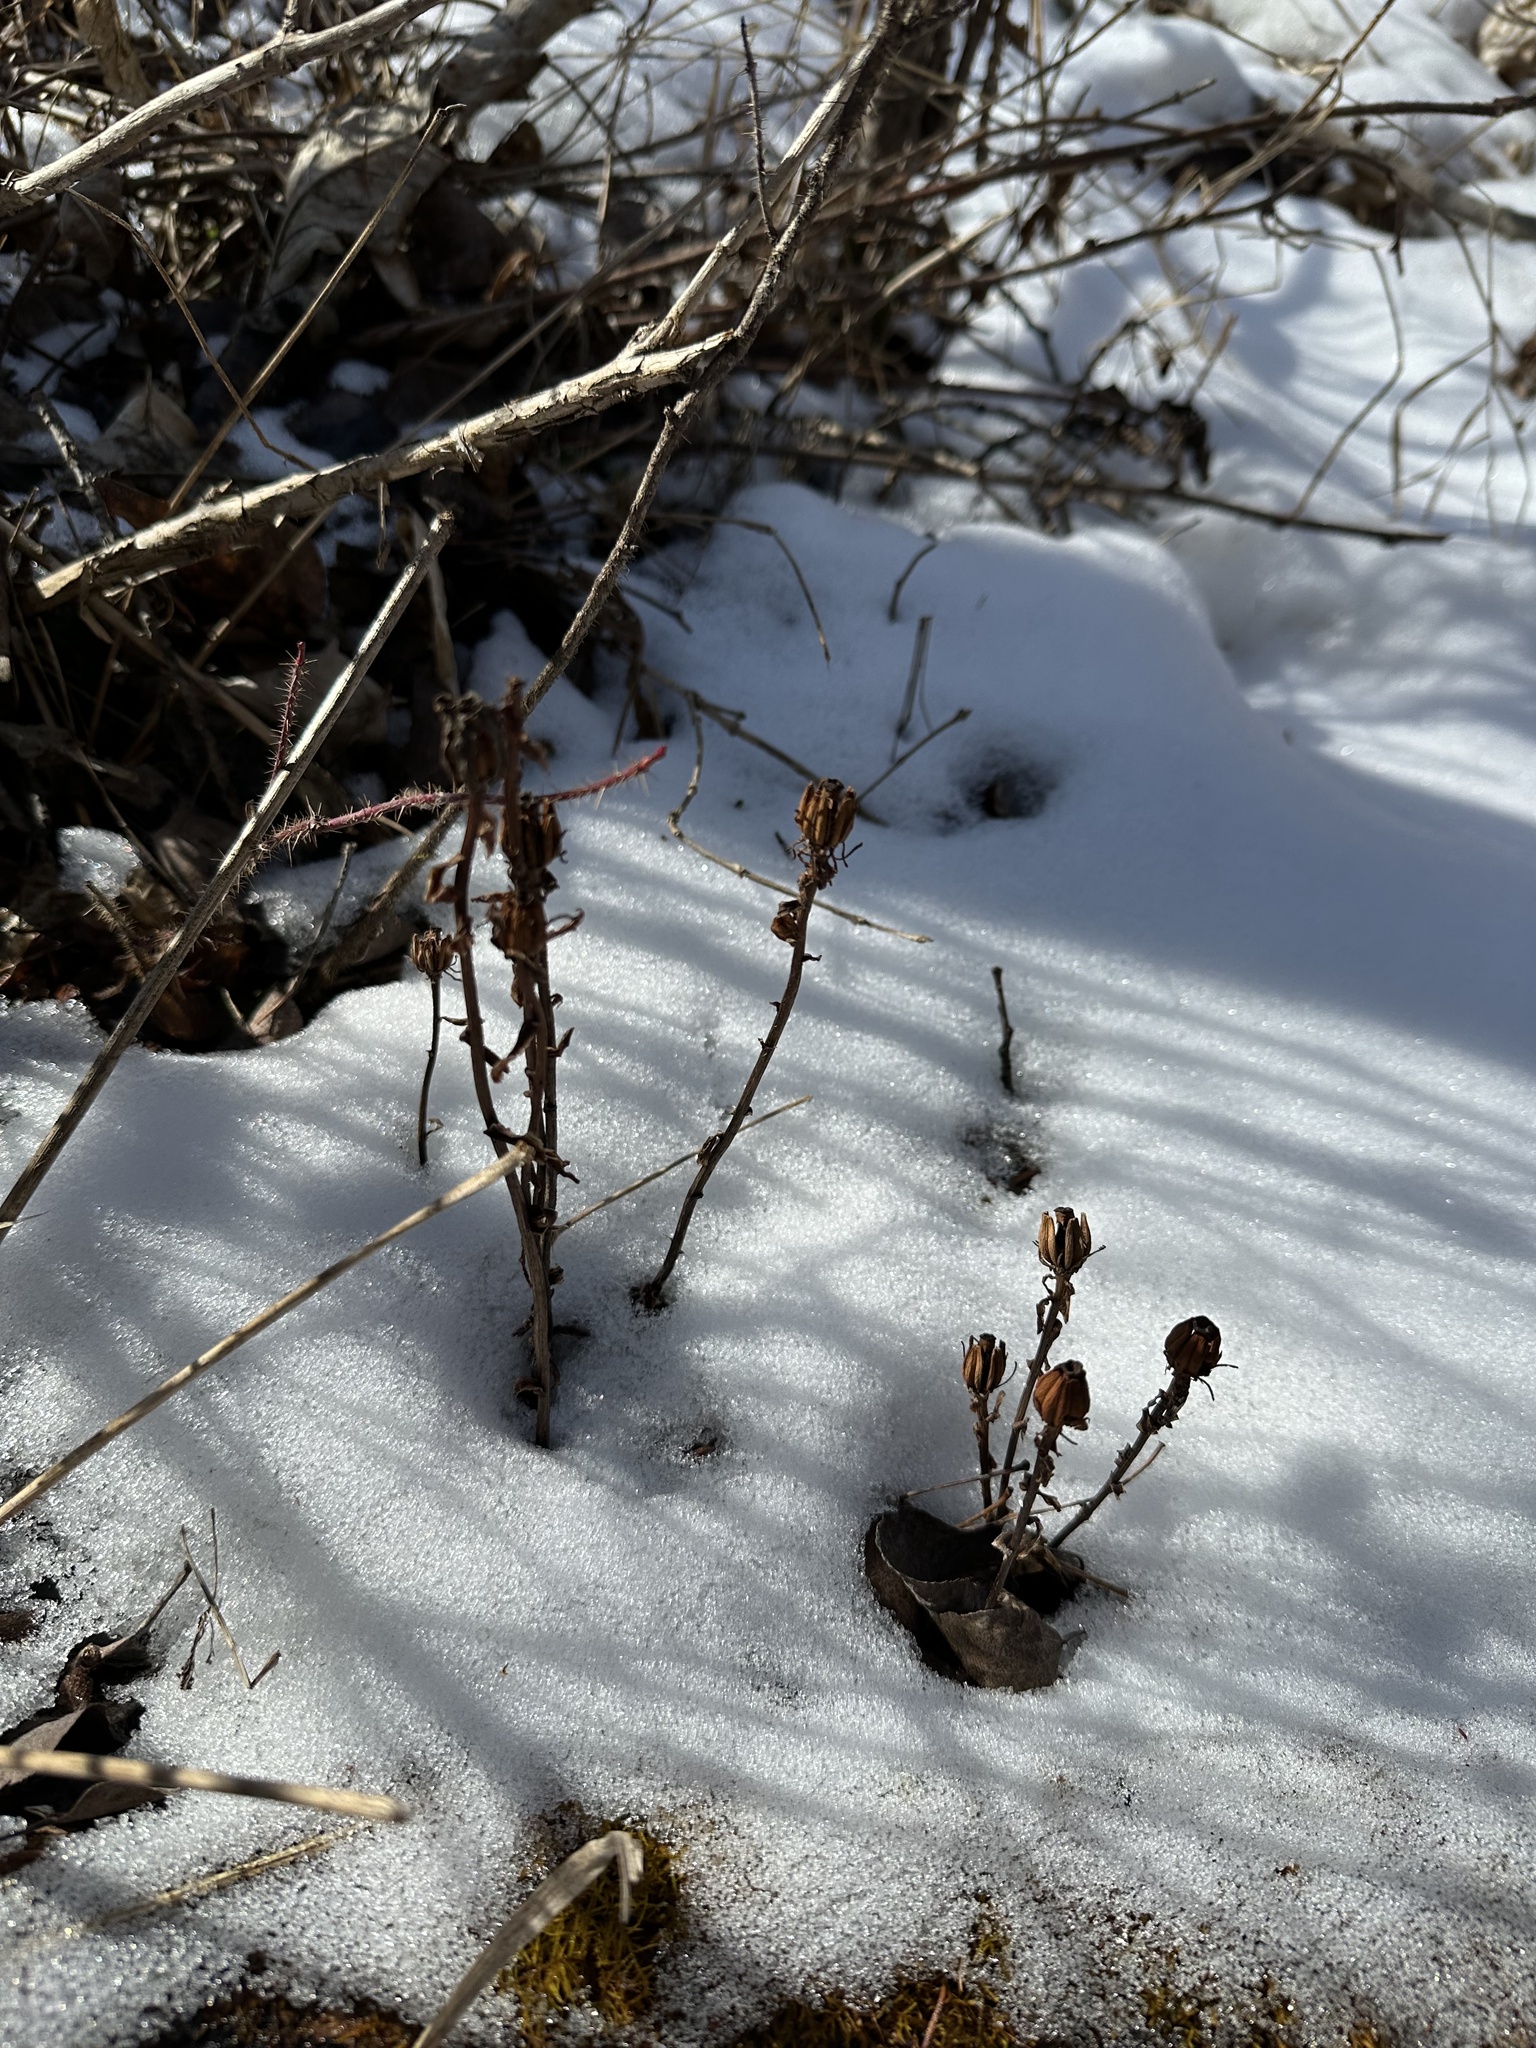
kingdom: Plantae
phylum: Tracheophyta
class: Magnoliopsida
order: Ericales
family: Ericaceae
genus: Monotropa
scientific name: Monotropa uniflora
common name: Convulsion root
